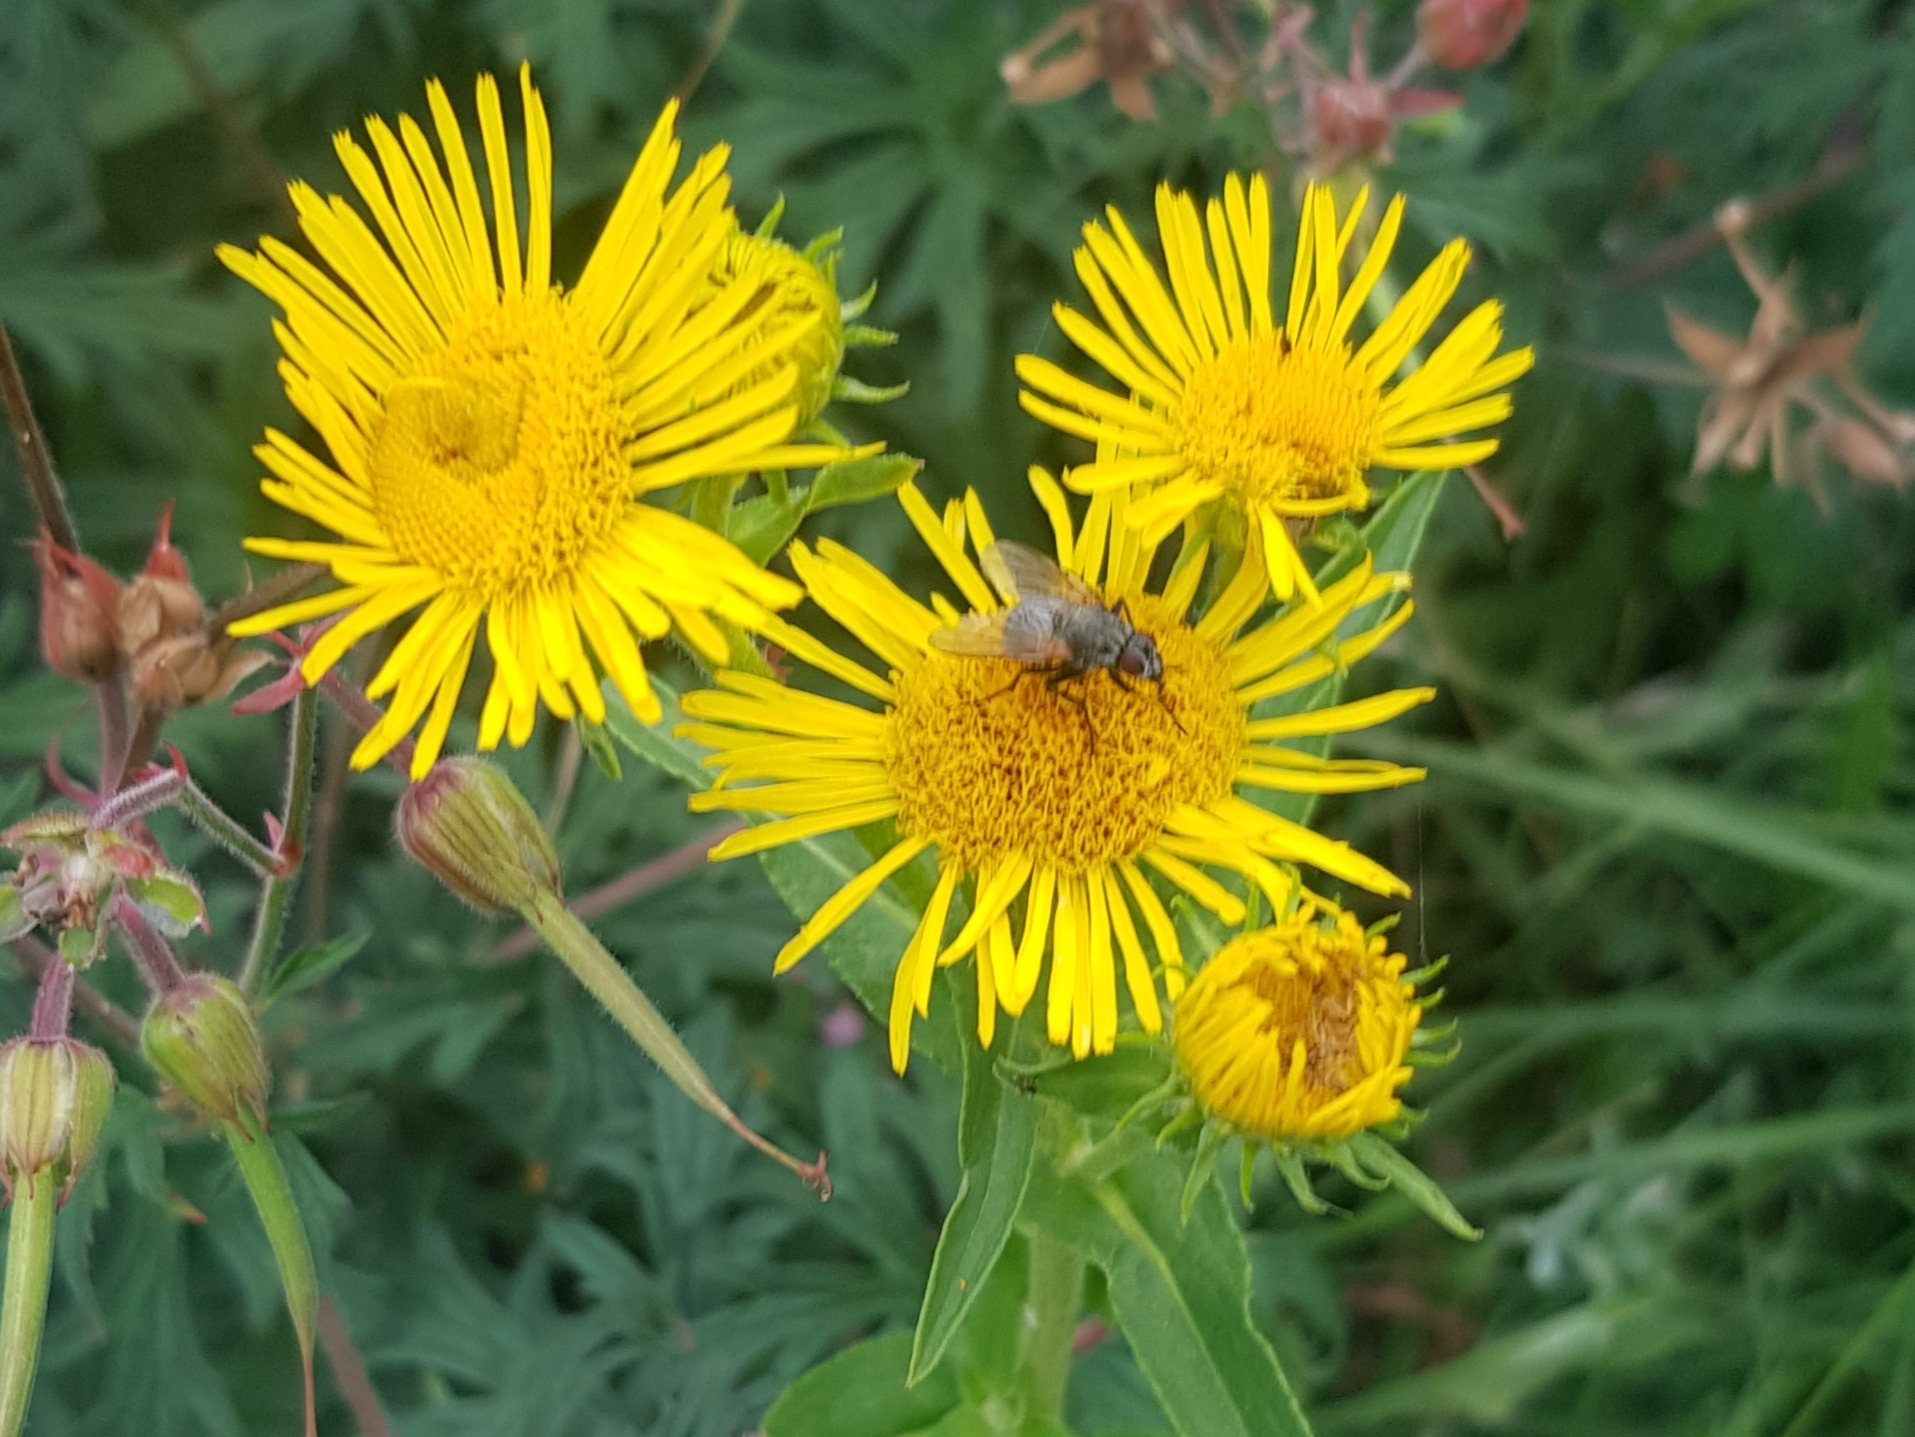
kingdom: Plantae
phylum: Tracheophyta
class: Magnoliopsida
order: Asterales
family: Asteraceae
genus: Pentanema
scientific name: Pentanema britannicum
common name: British elecampane
